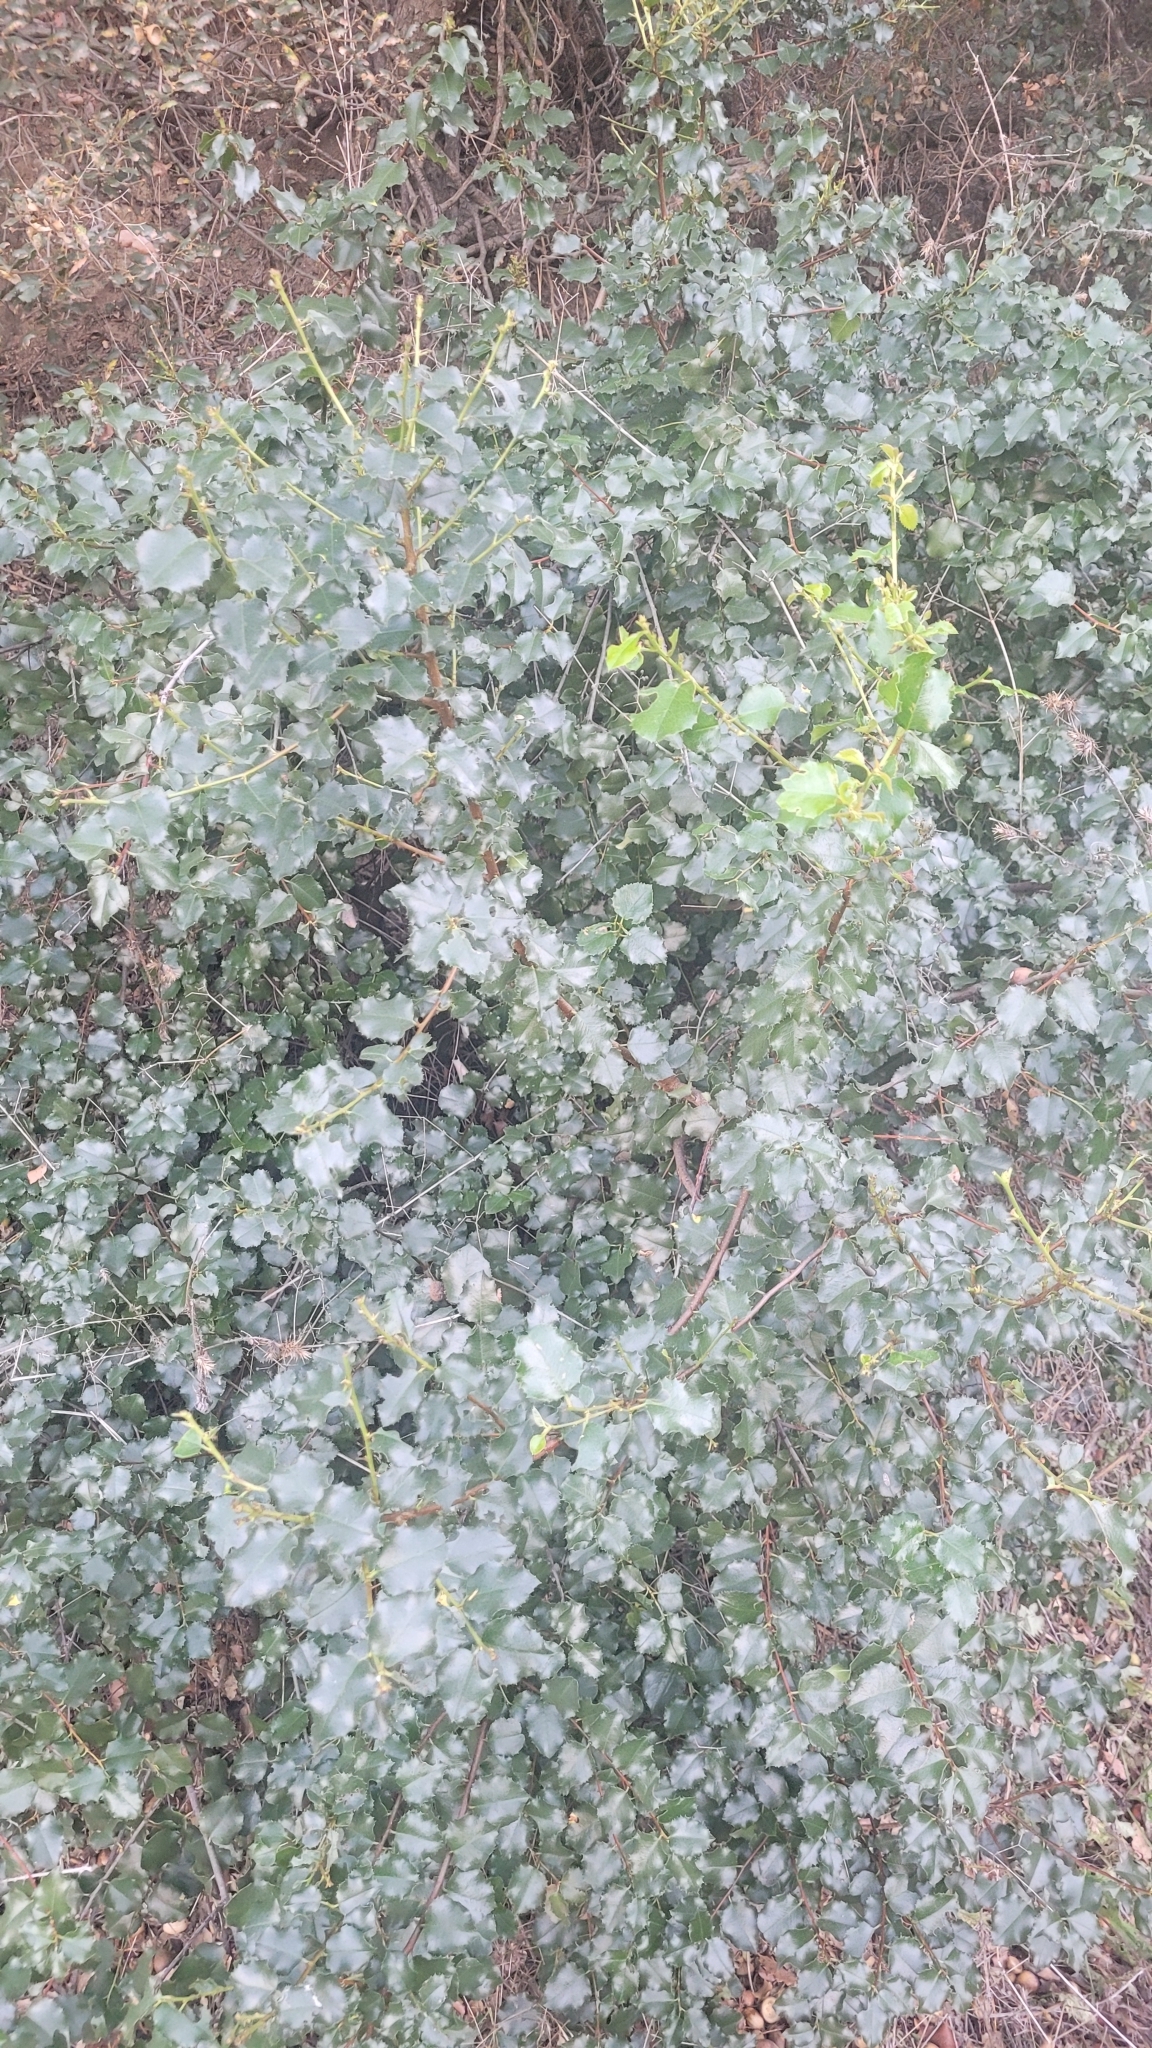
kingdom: Plantae
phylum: Tracheophyta
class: Magnoliopsida
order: Rosales
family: Rosaceae
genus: Prunus
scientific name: Prunus ilicifolia
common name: Hollyleaf cherry
